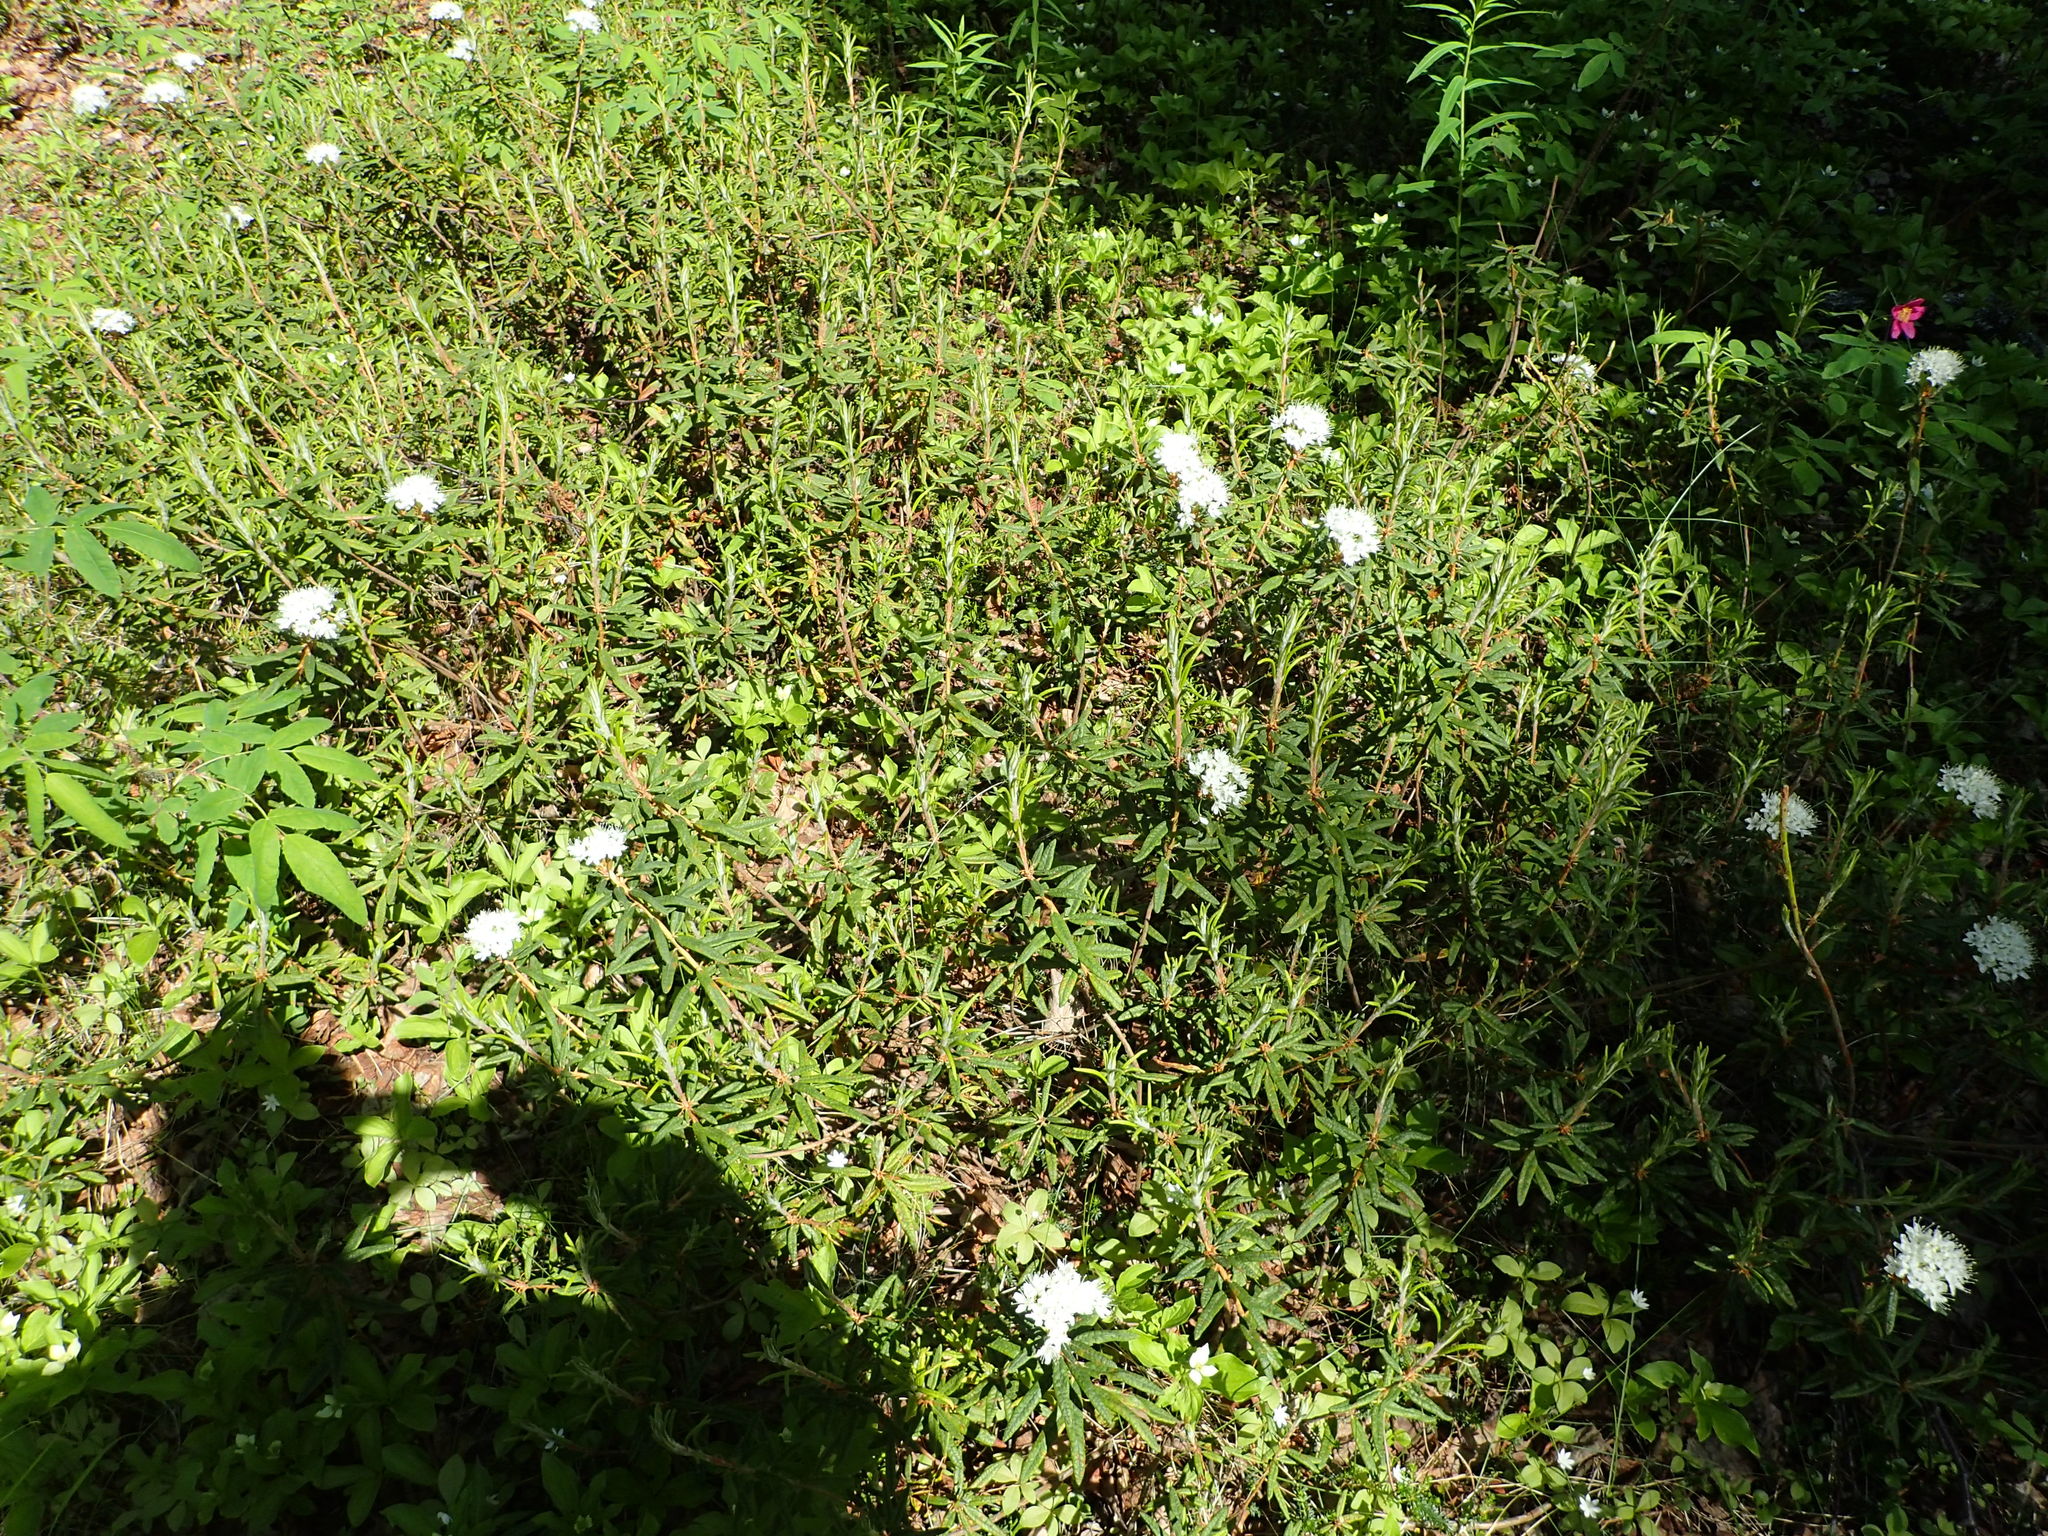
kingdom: Plantae
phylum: Tracheophyta
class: Magnoliopsida
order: Ericales
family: Ericaceae
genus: Rhododendron
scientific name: Rhododendron groenlandicum
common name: Bog labrador tea
